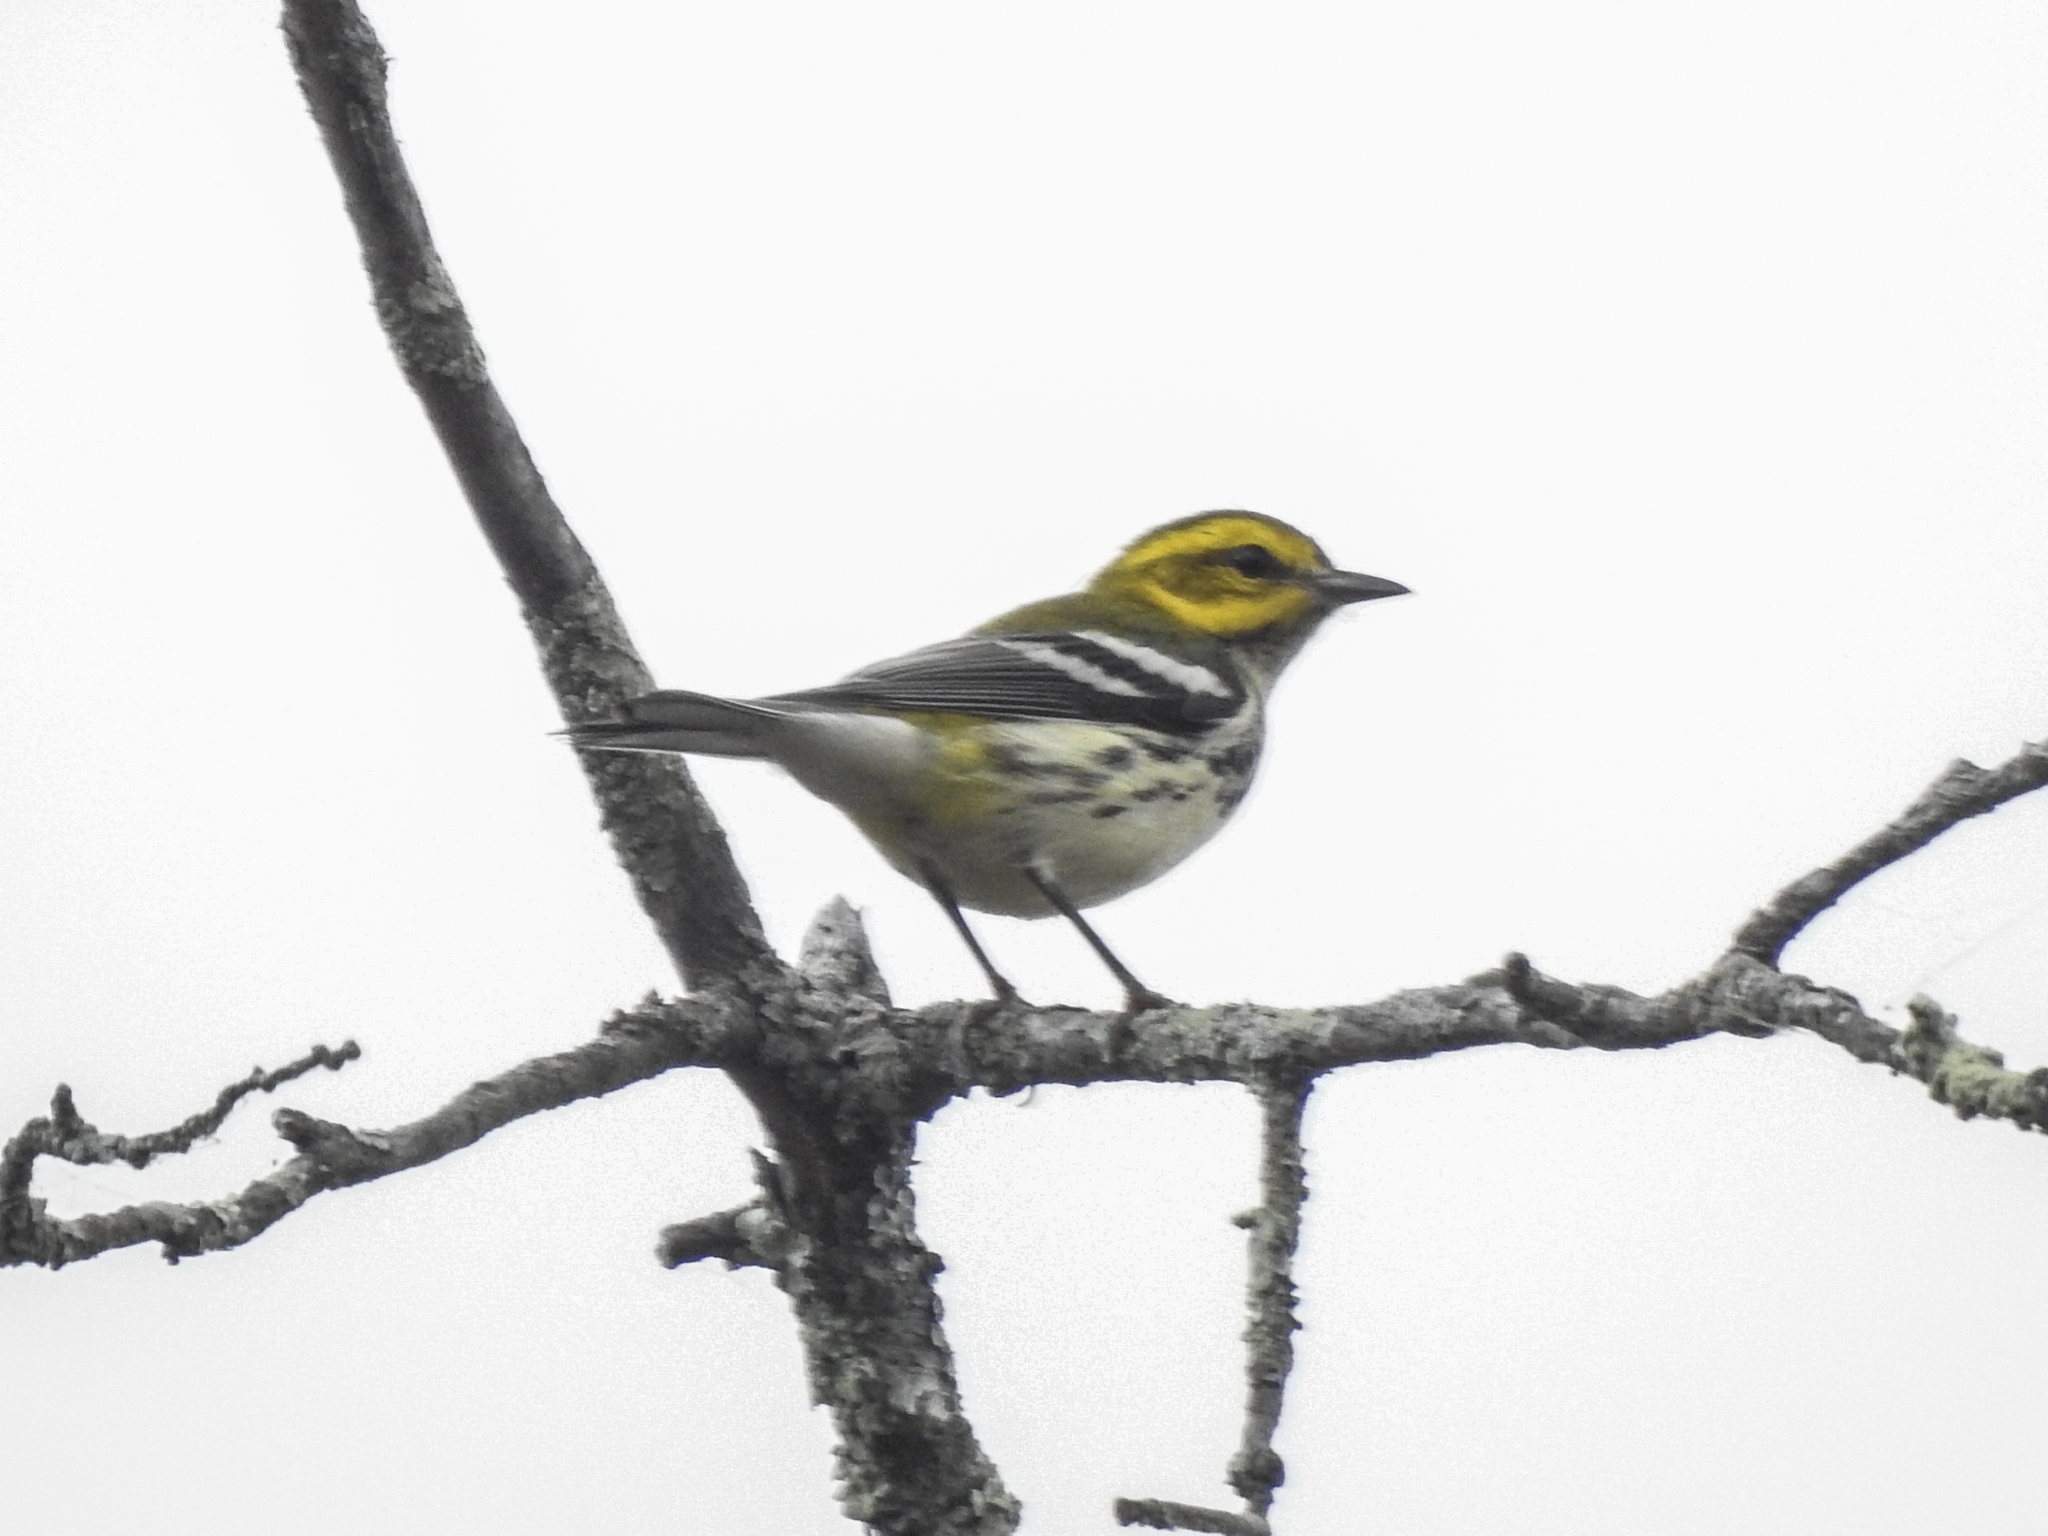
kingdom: Animalia
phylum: Chordata
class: Aves
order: Passeriformes
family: Parulidae
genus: Setophaga
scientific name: Setophaga virens
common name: Black-throated green warbler
